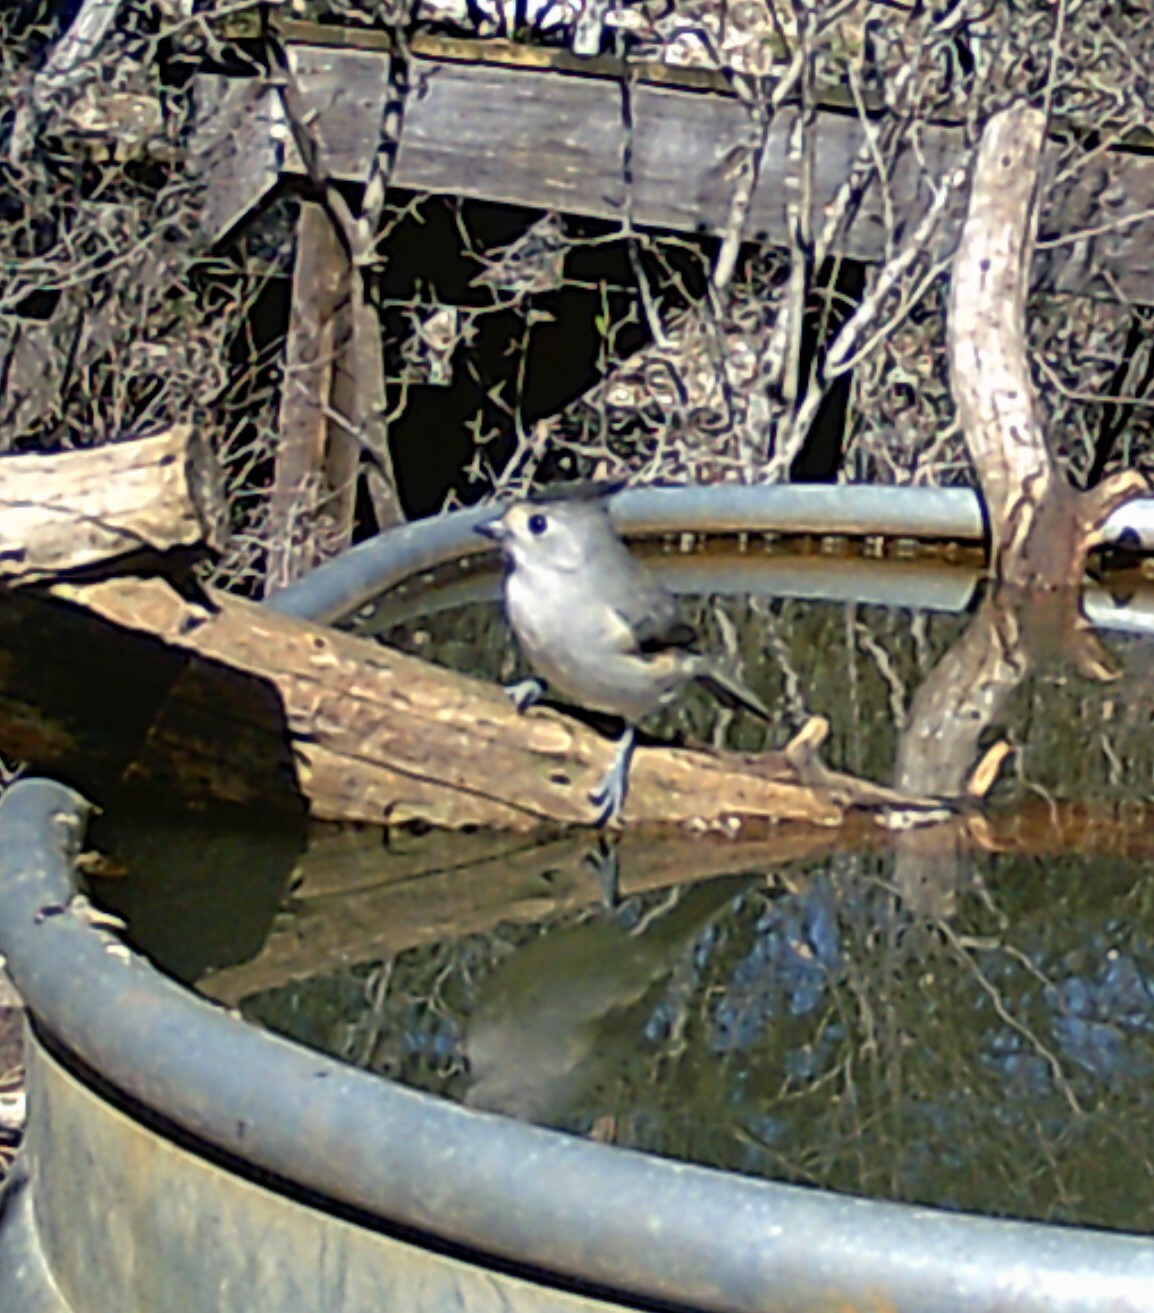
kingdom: Animalia
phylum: Chordata
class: Aves
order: Passeriformes
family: Paridae
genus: Baeolophus
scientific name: Baeolophus atricristatus
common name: Black-crested titmouse
